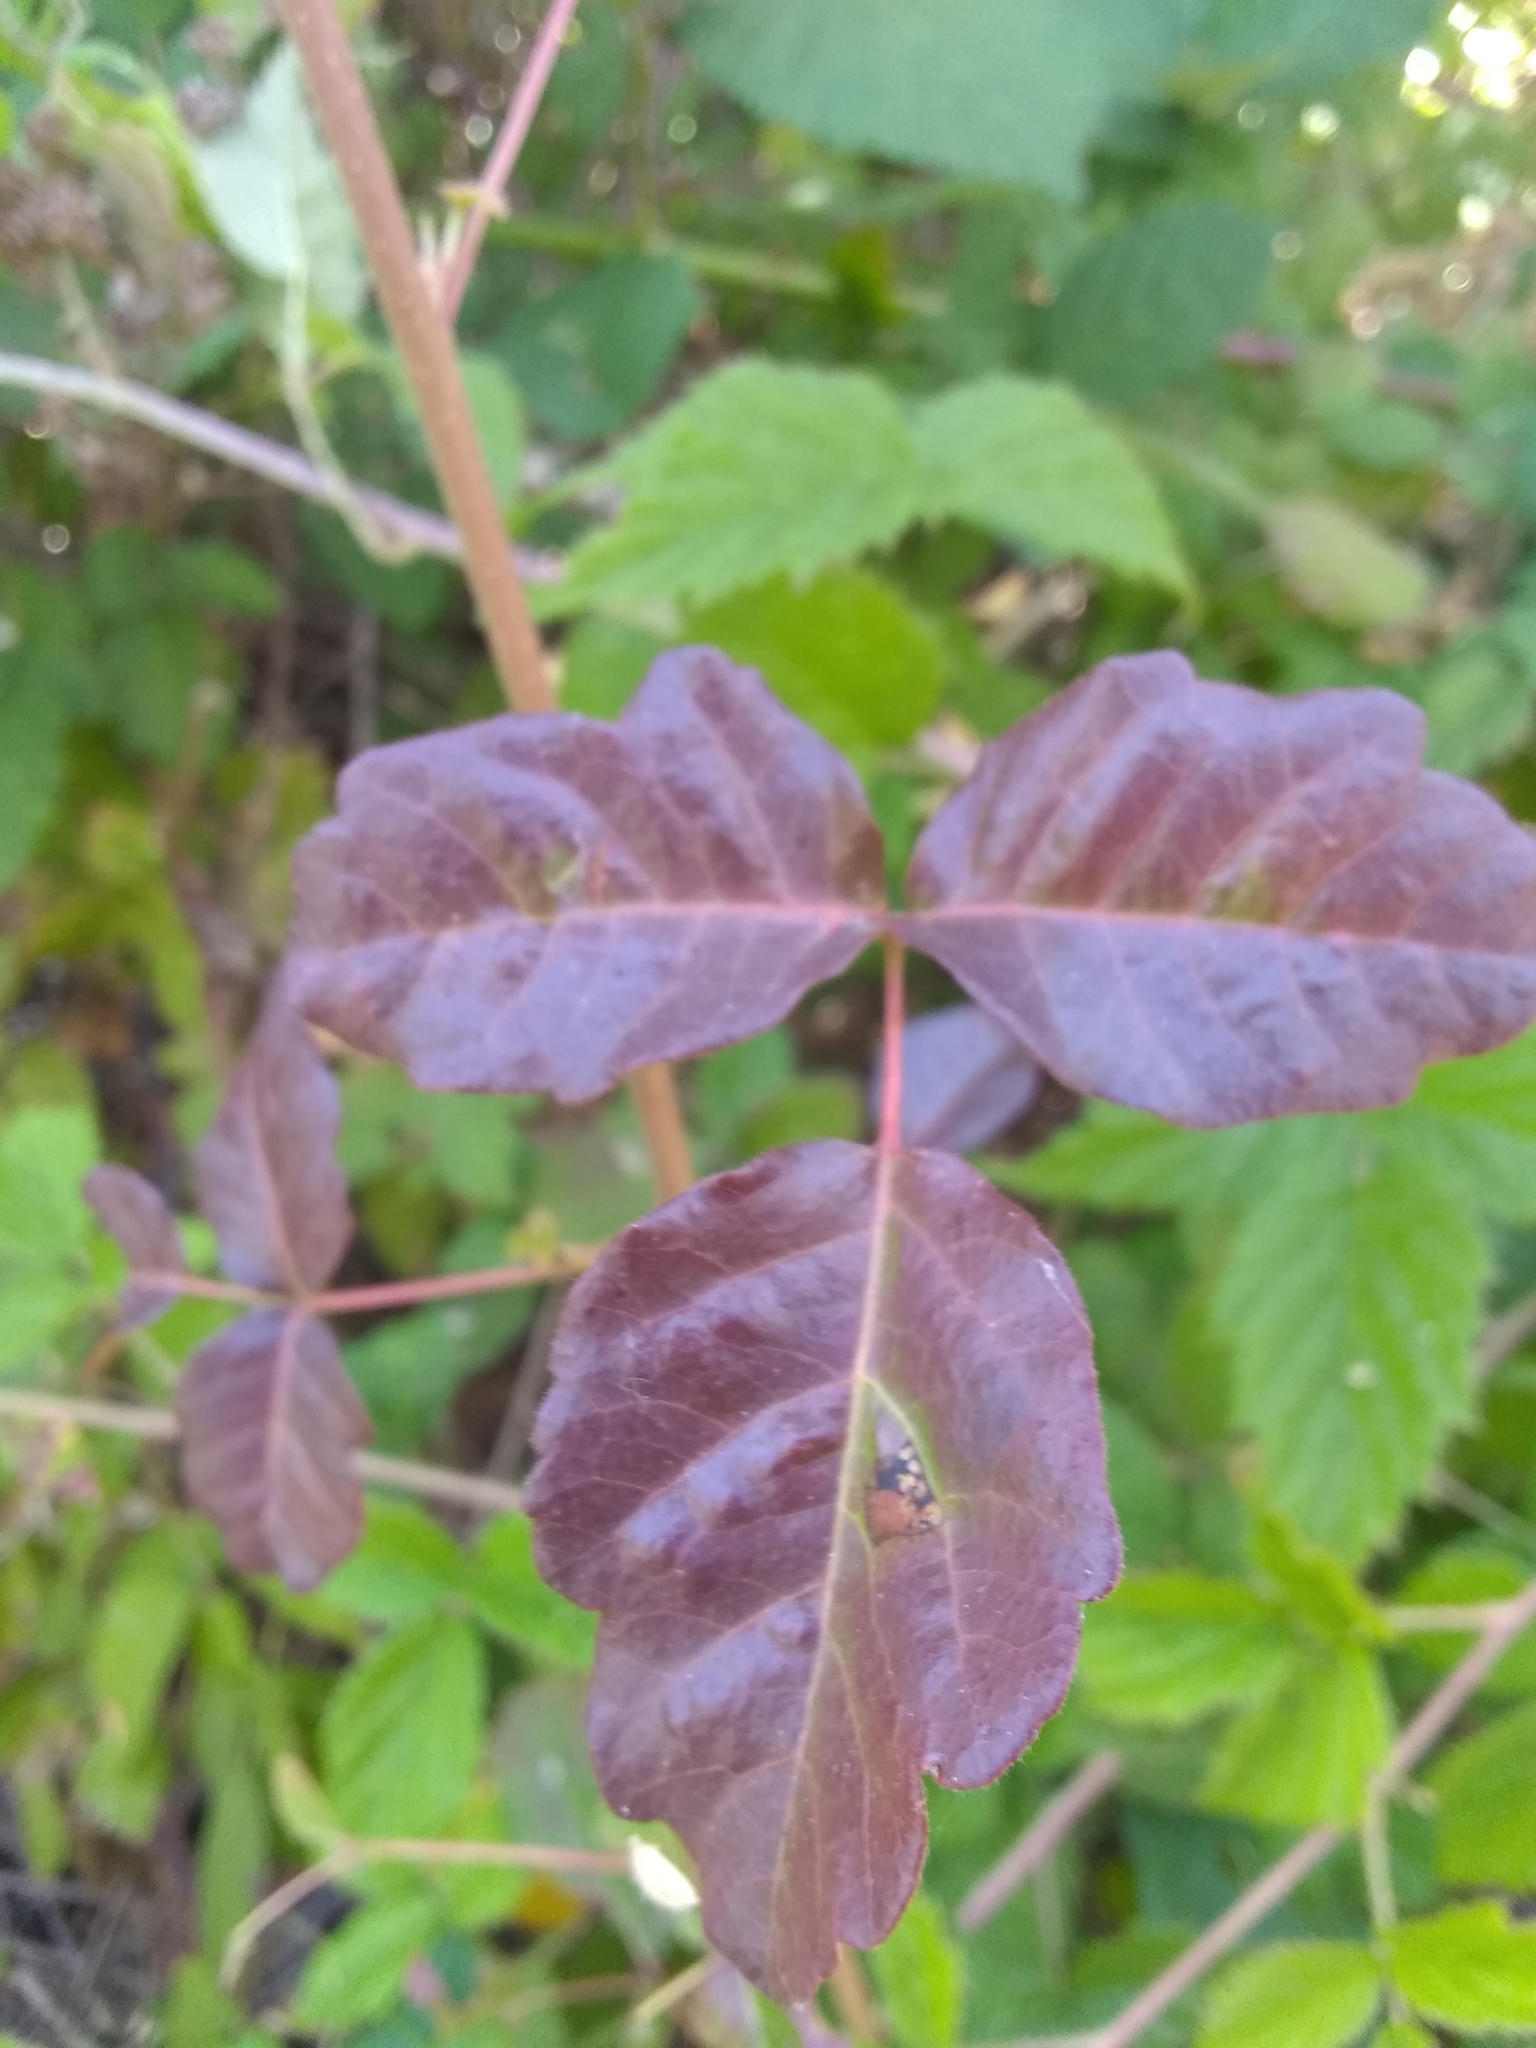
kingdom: Plantae
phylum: Tracheophyta
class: Magnoliopsida
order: Sapindales
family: Anacardiaceae
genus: Toxicodendron
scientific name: Toxicodendron diversilobum
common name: Pacific poison-oak
